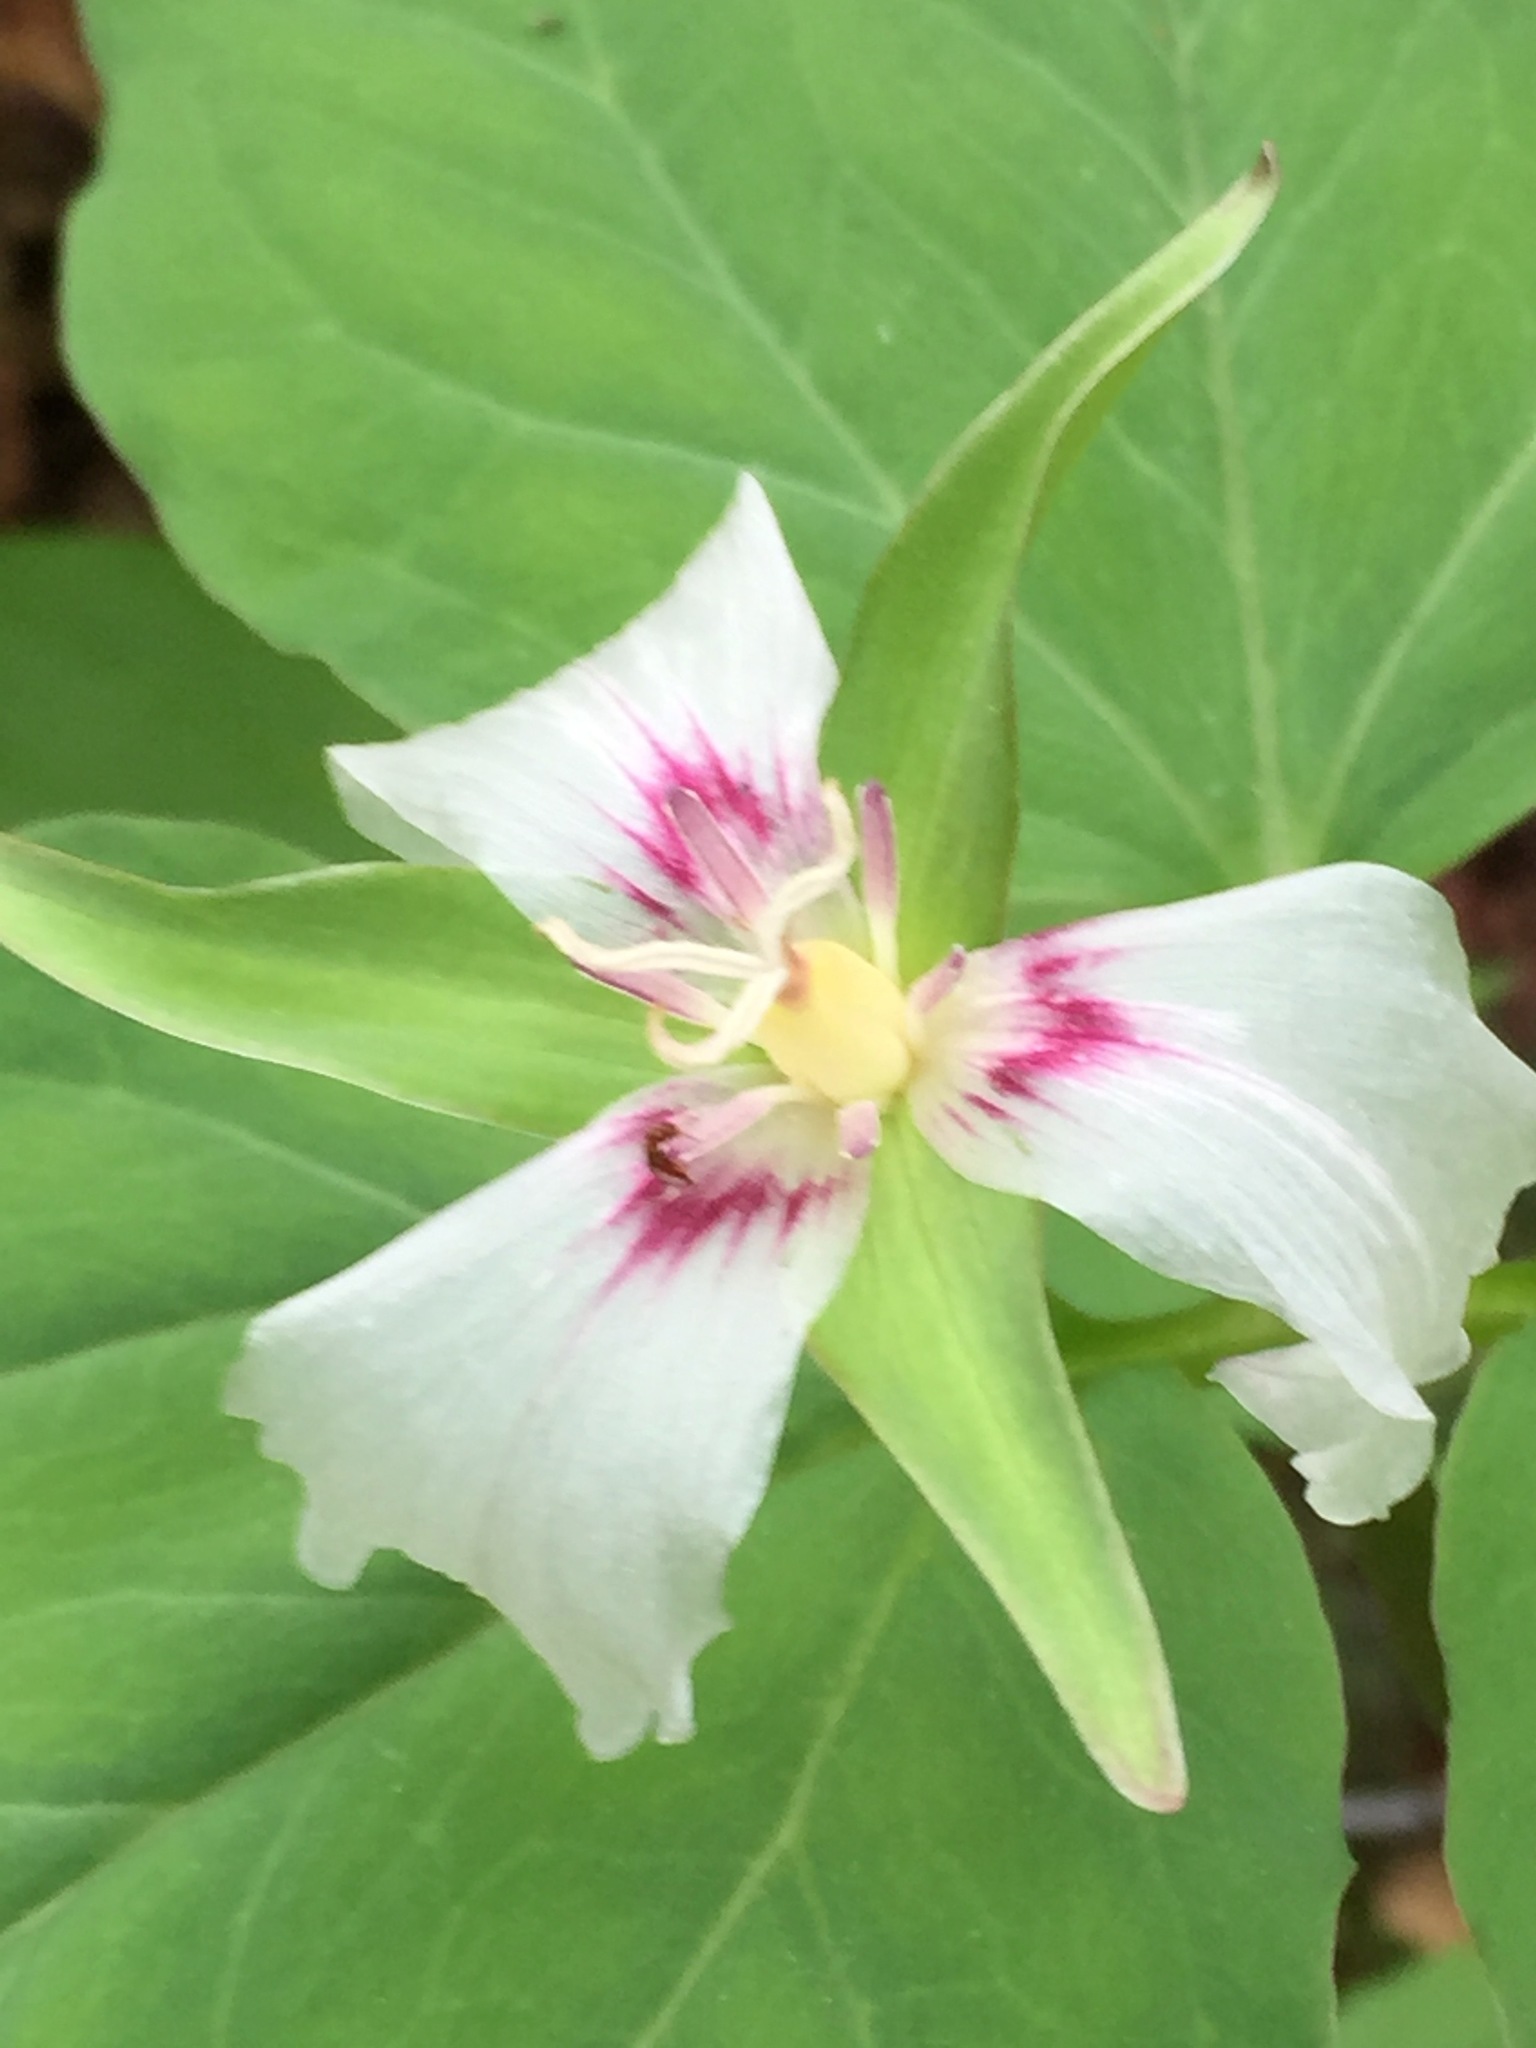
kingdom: Plantae
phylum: Tracheophyta
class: Liliopsida
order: Liliales
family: Melanthiaceae
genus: Trillium
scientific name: Trillium undulatum
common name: Paint trillium
